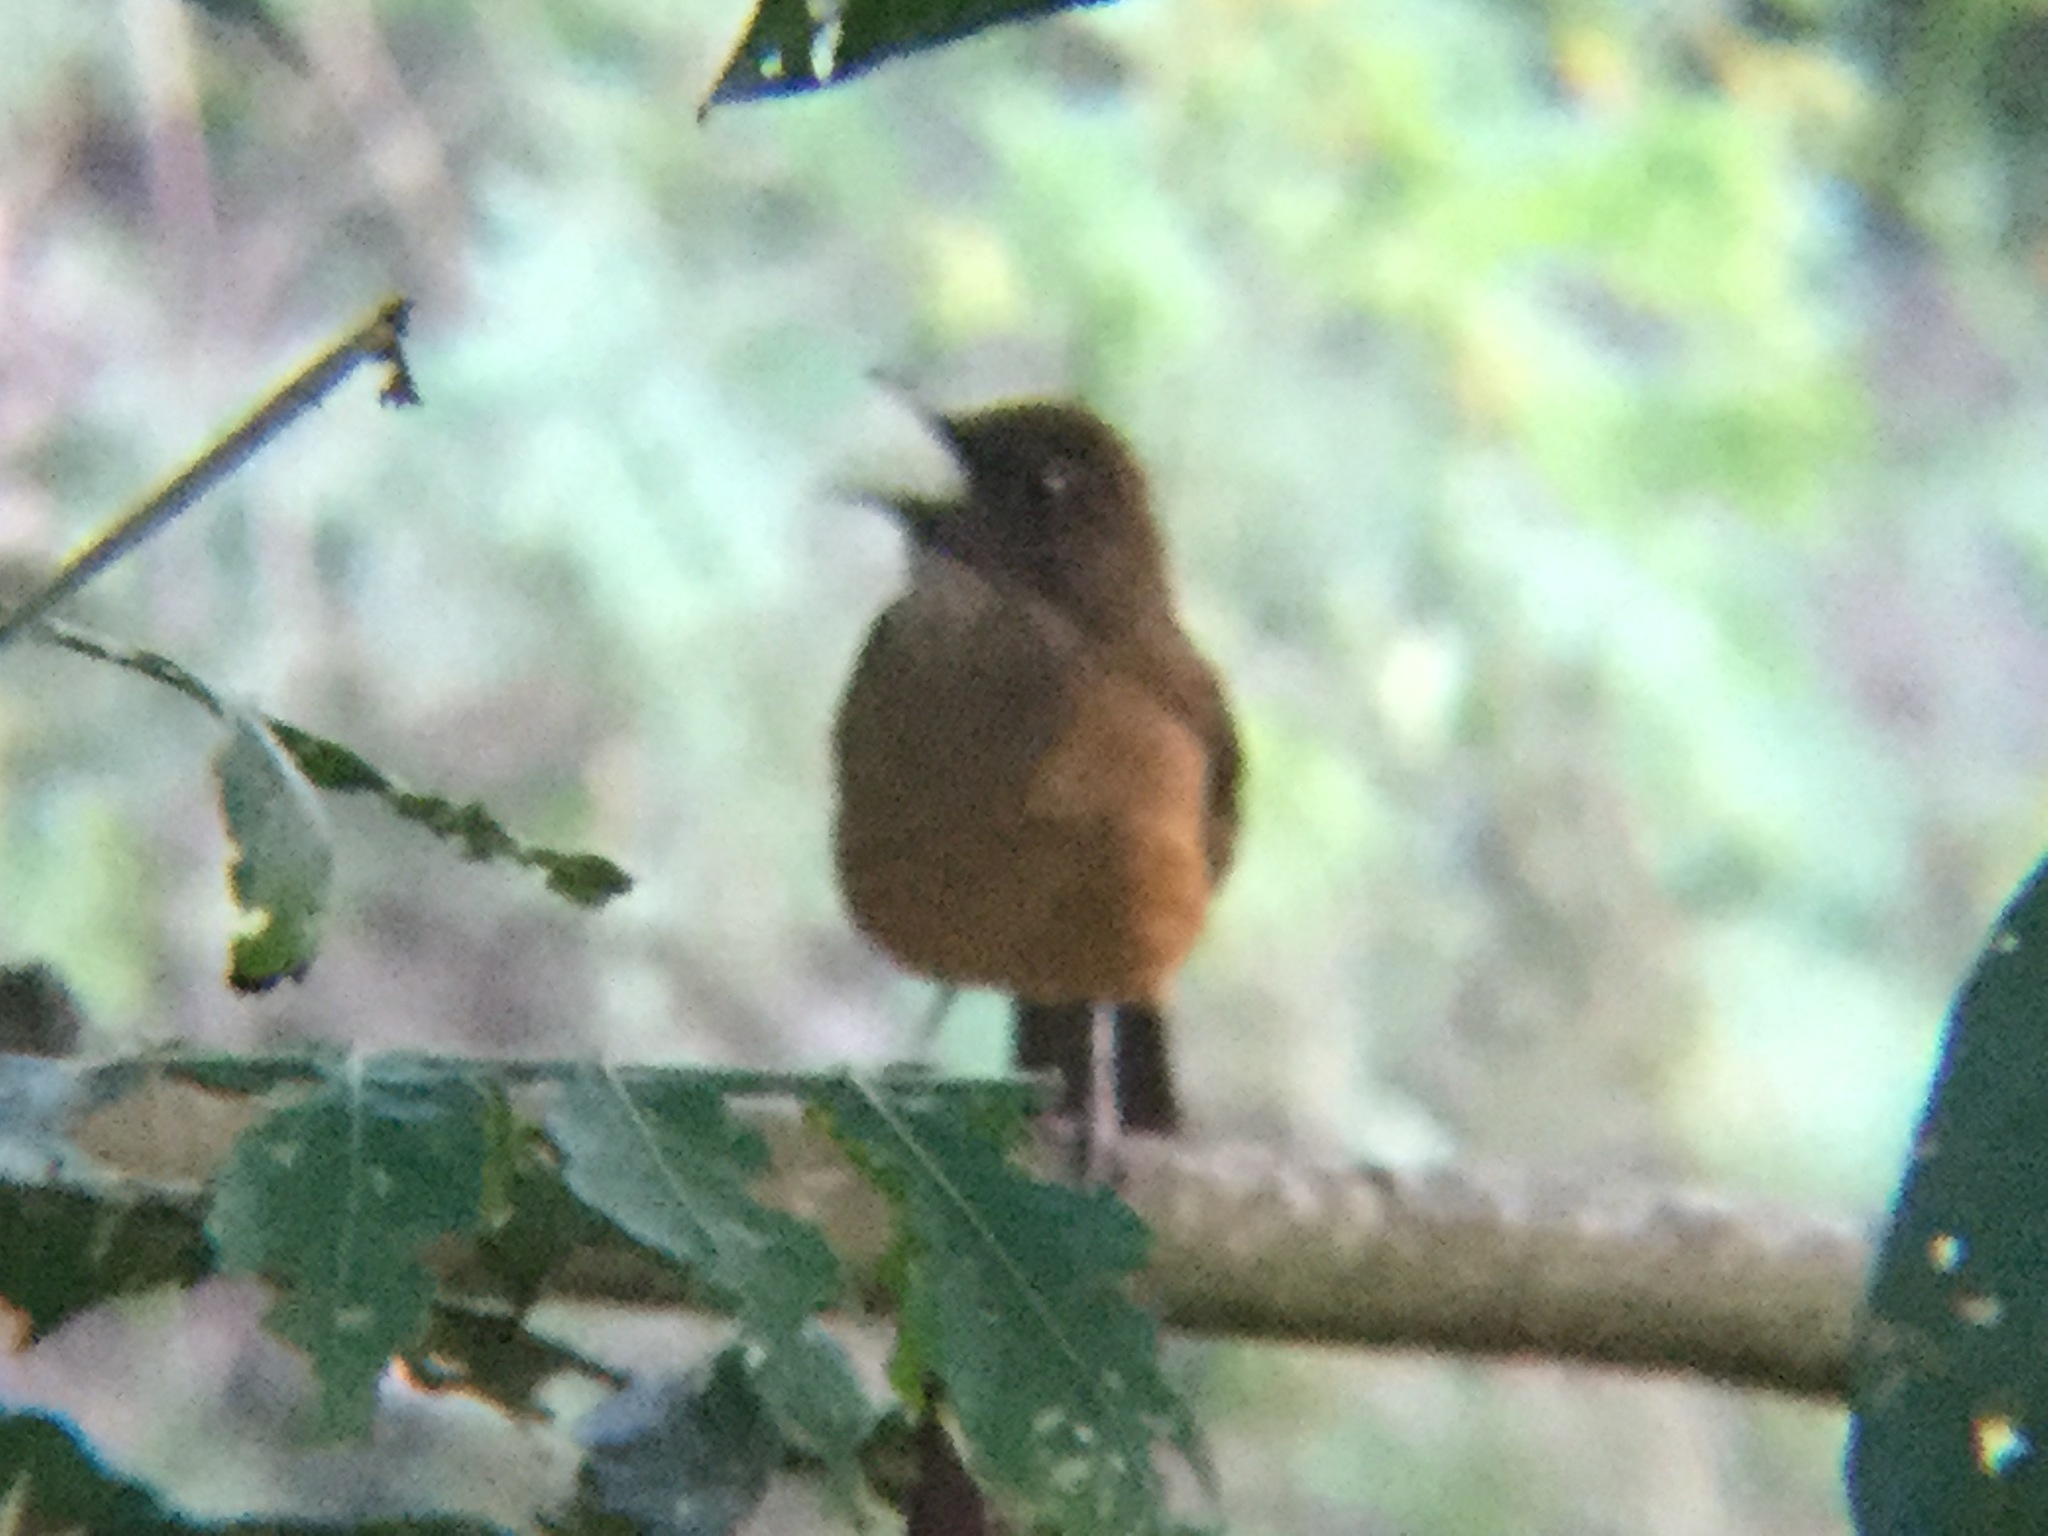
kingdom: Animalia
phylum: Chordata
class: Aves
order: Passeriformes
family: Turdidae
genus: Turdus
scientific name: Turdus grayi
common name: Clay-colored thrush
